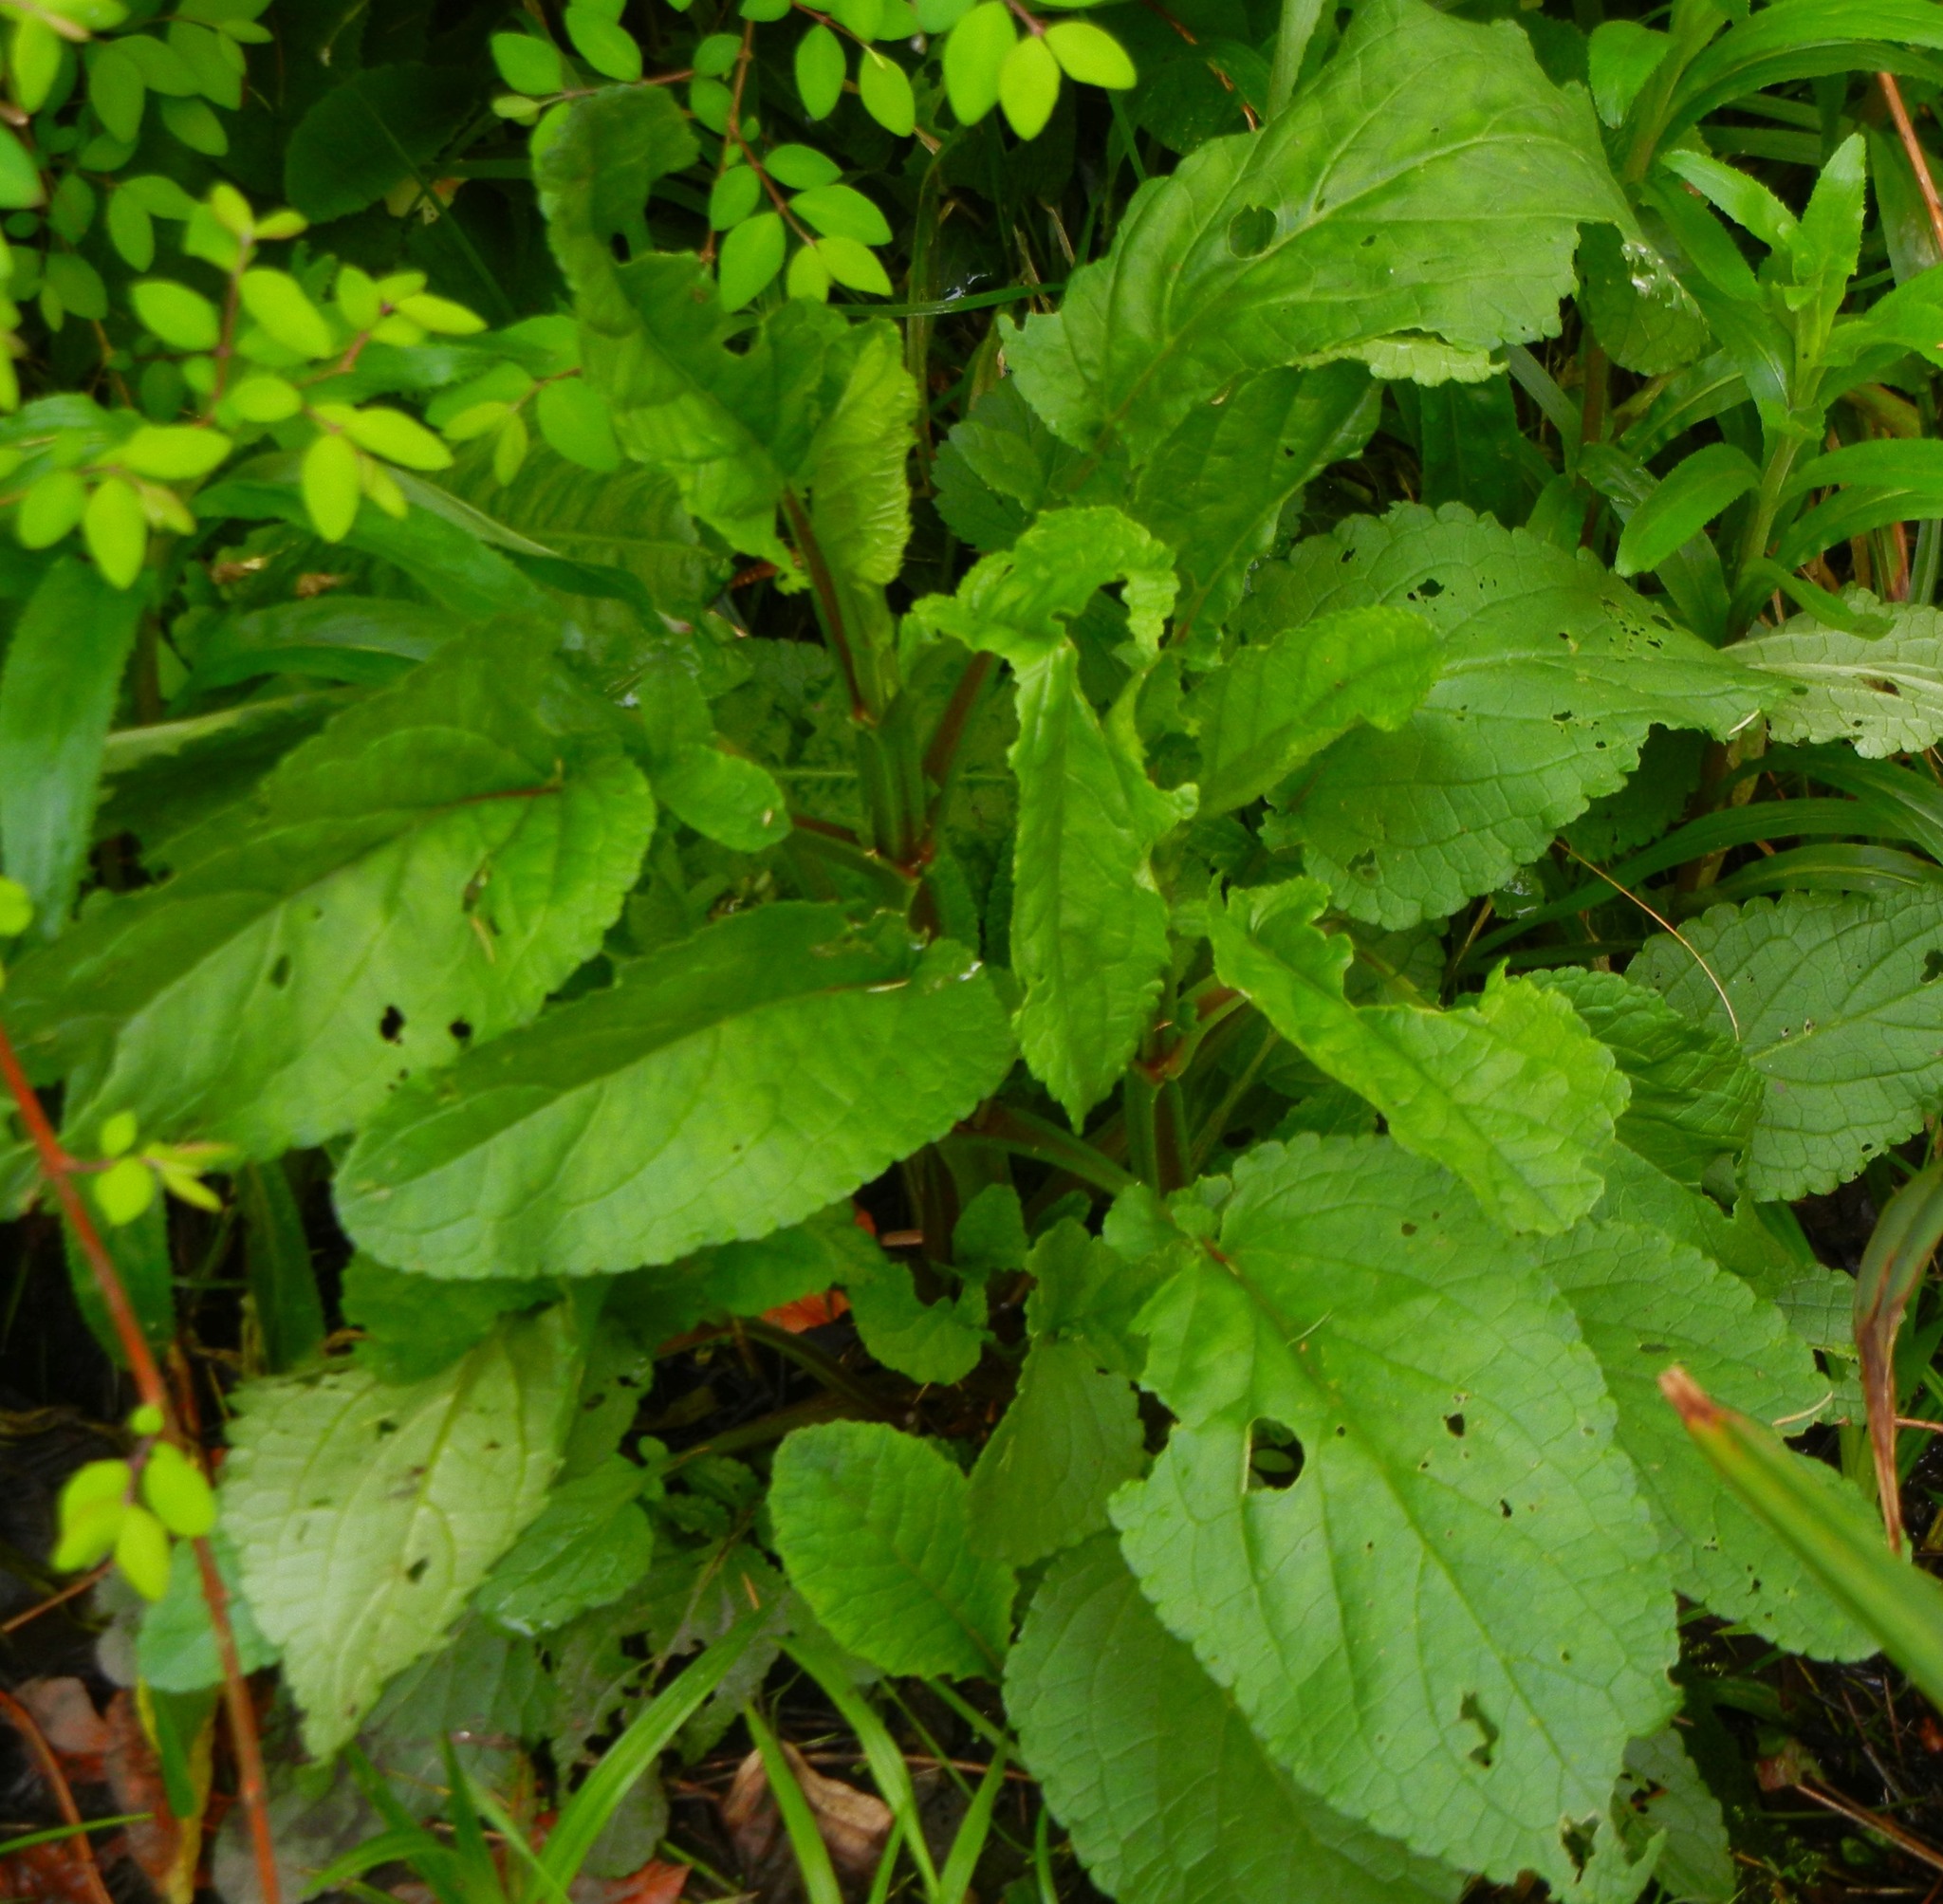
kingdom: Plantae
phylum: Tracheophyta
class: Magnoliopsida
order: Lamiales
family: Scrophulariaceae
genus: Scrophularia
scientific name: Scrophularia auriculata
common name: Water betony
